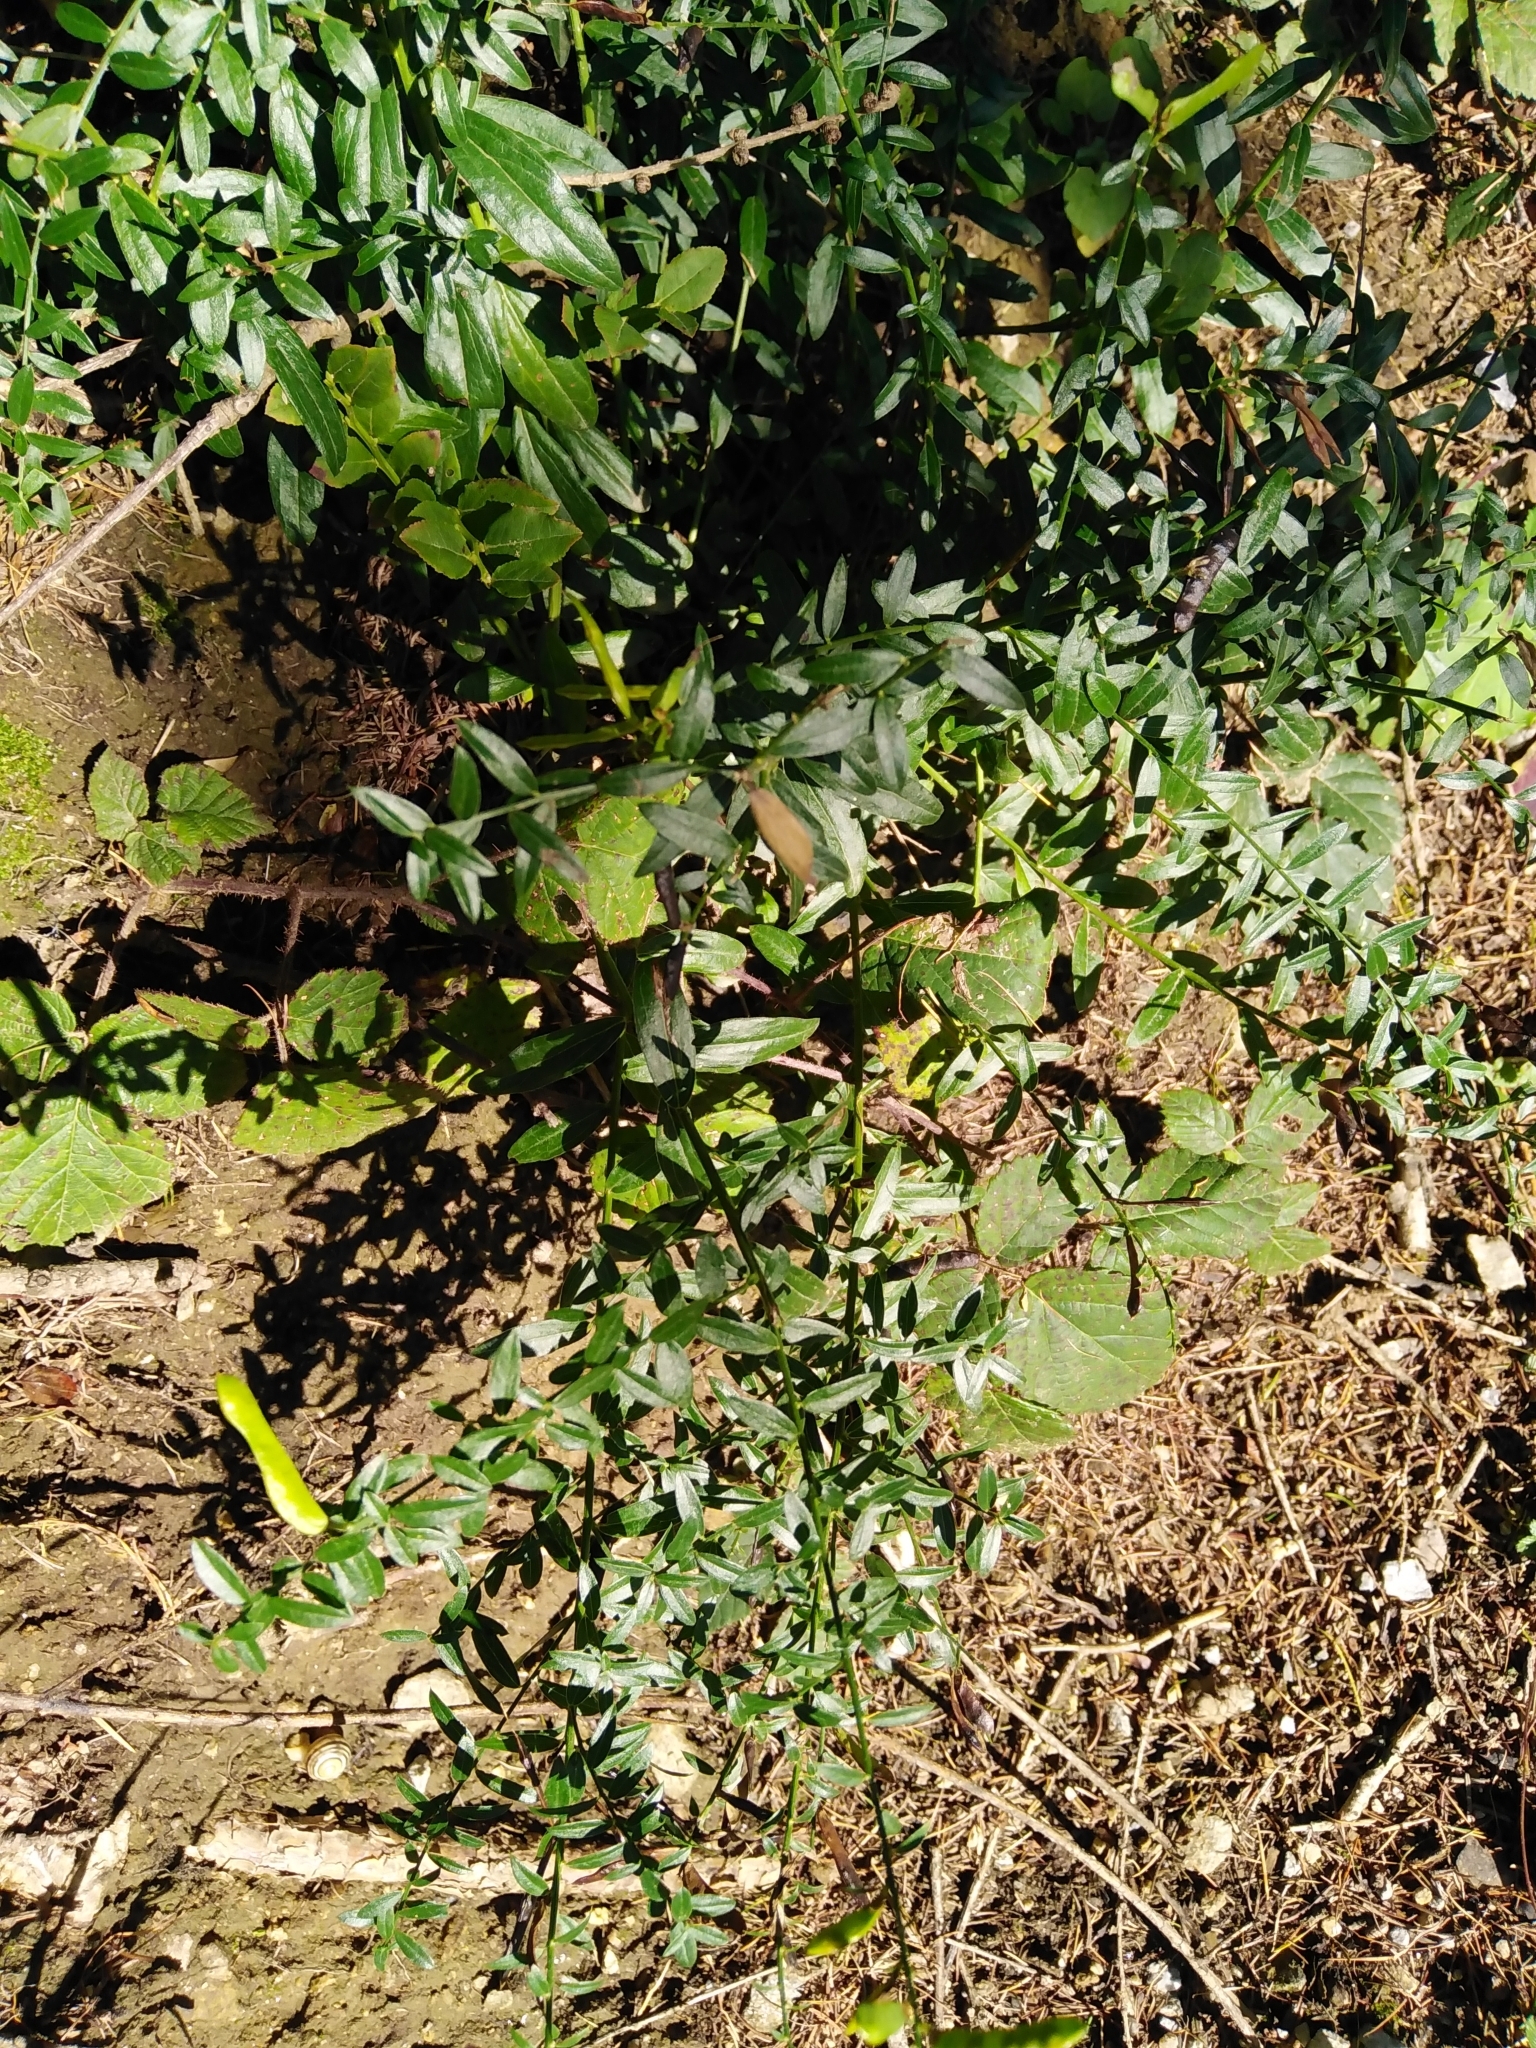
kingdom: Plantae
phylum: Tracheophyta
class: Magnoliopsida
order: Fabales
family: Fabaceae
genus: Genista
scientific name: Genista tinctoria
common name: Dyer's greenweed
